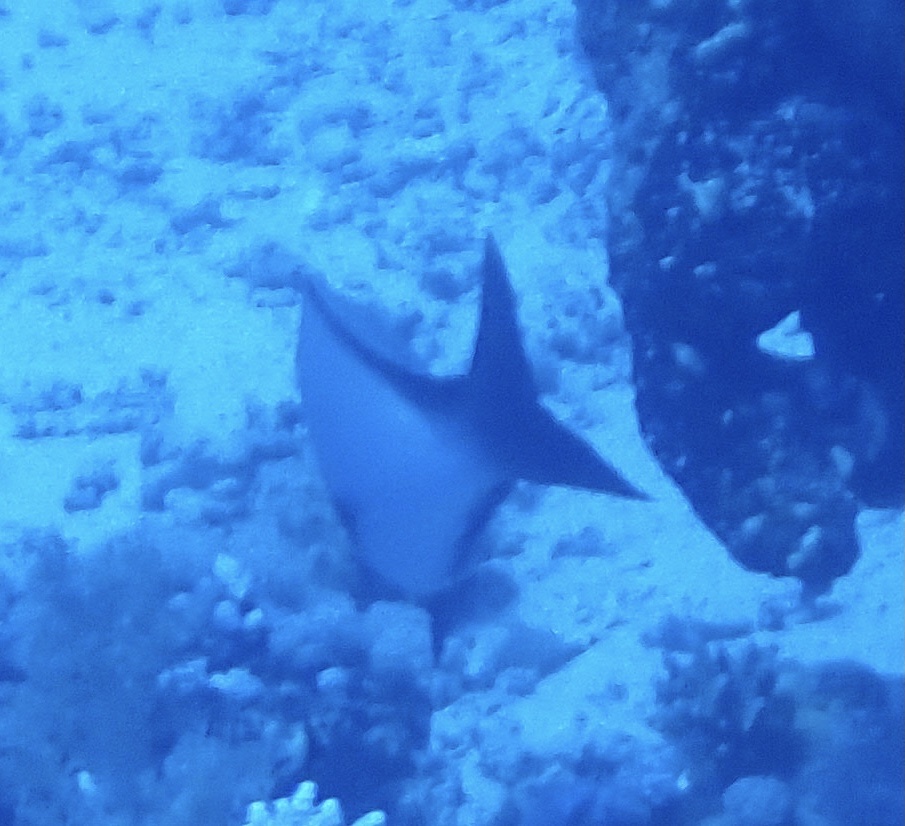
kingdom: Animalia
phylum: Chordata
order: Perciformes
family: Lutjanidae
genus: Lutjanus
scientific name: Lutjanus gibbus
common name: Humpback snapper
